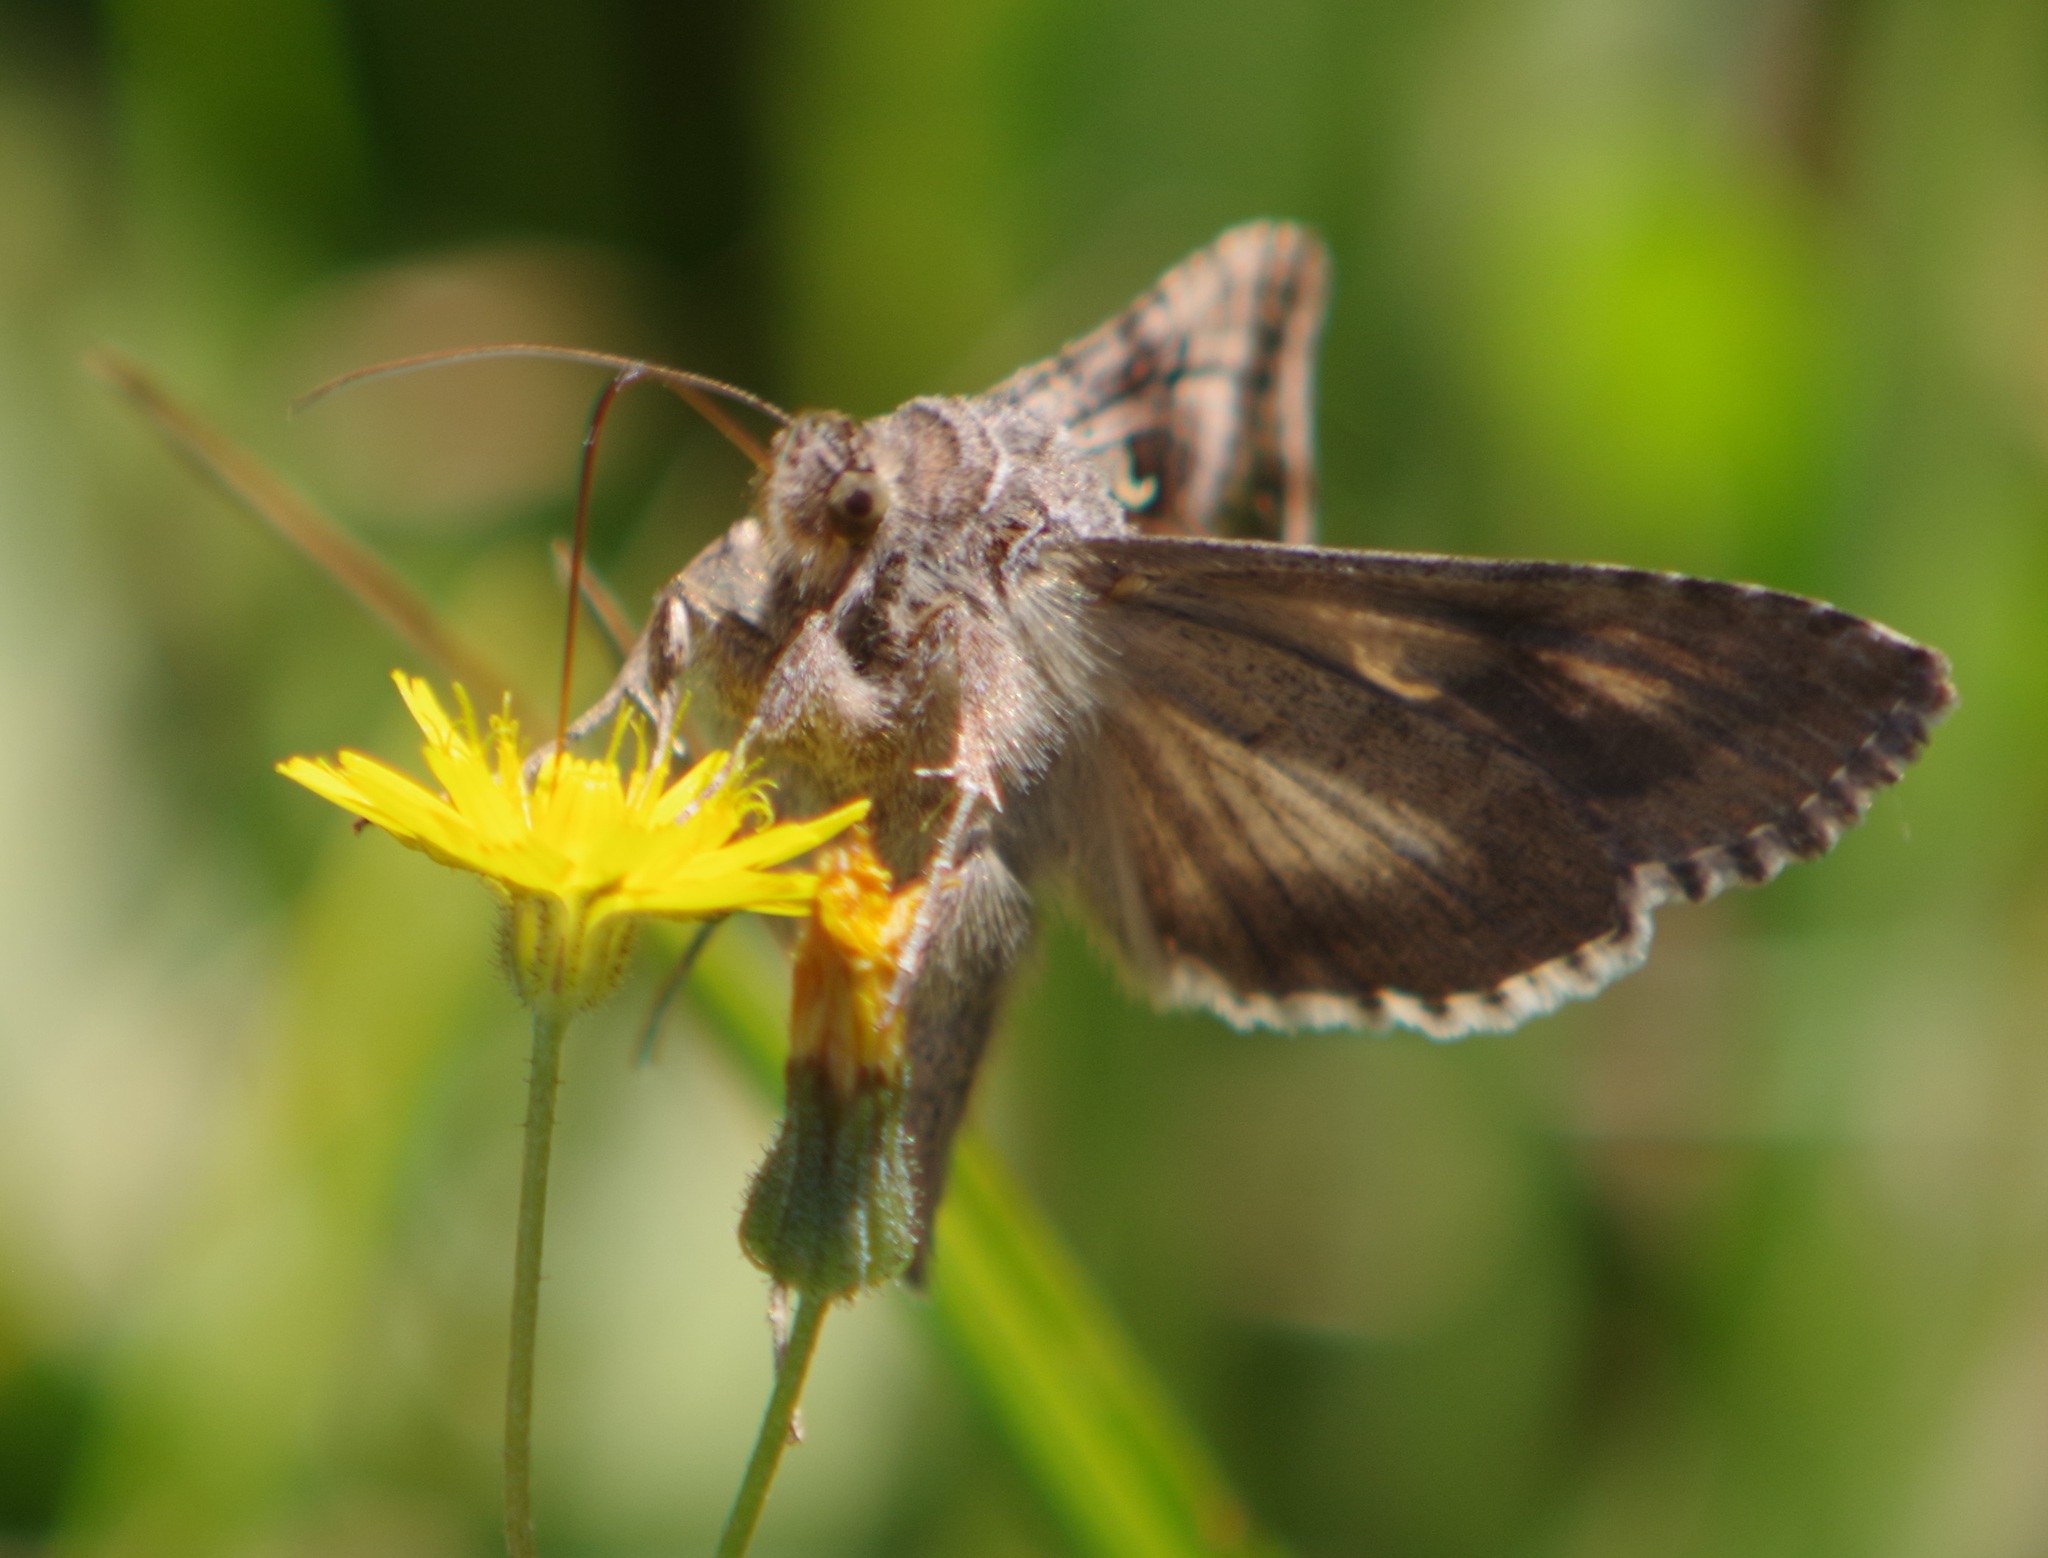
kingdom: Animalia
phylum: Arthropoda
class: Insecta
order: Lepidoptera
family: Noctuidae
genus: Autographa
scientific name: Autographa gamma
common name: Silver y
